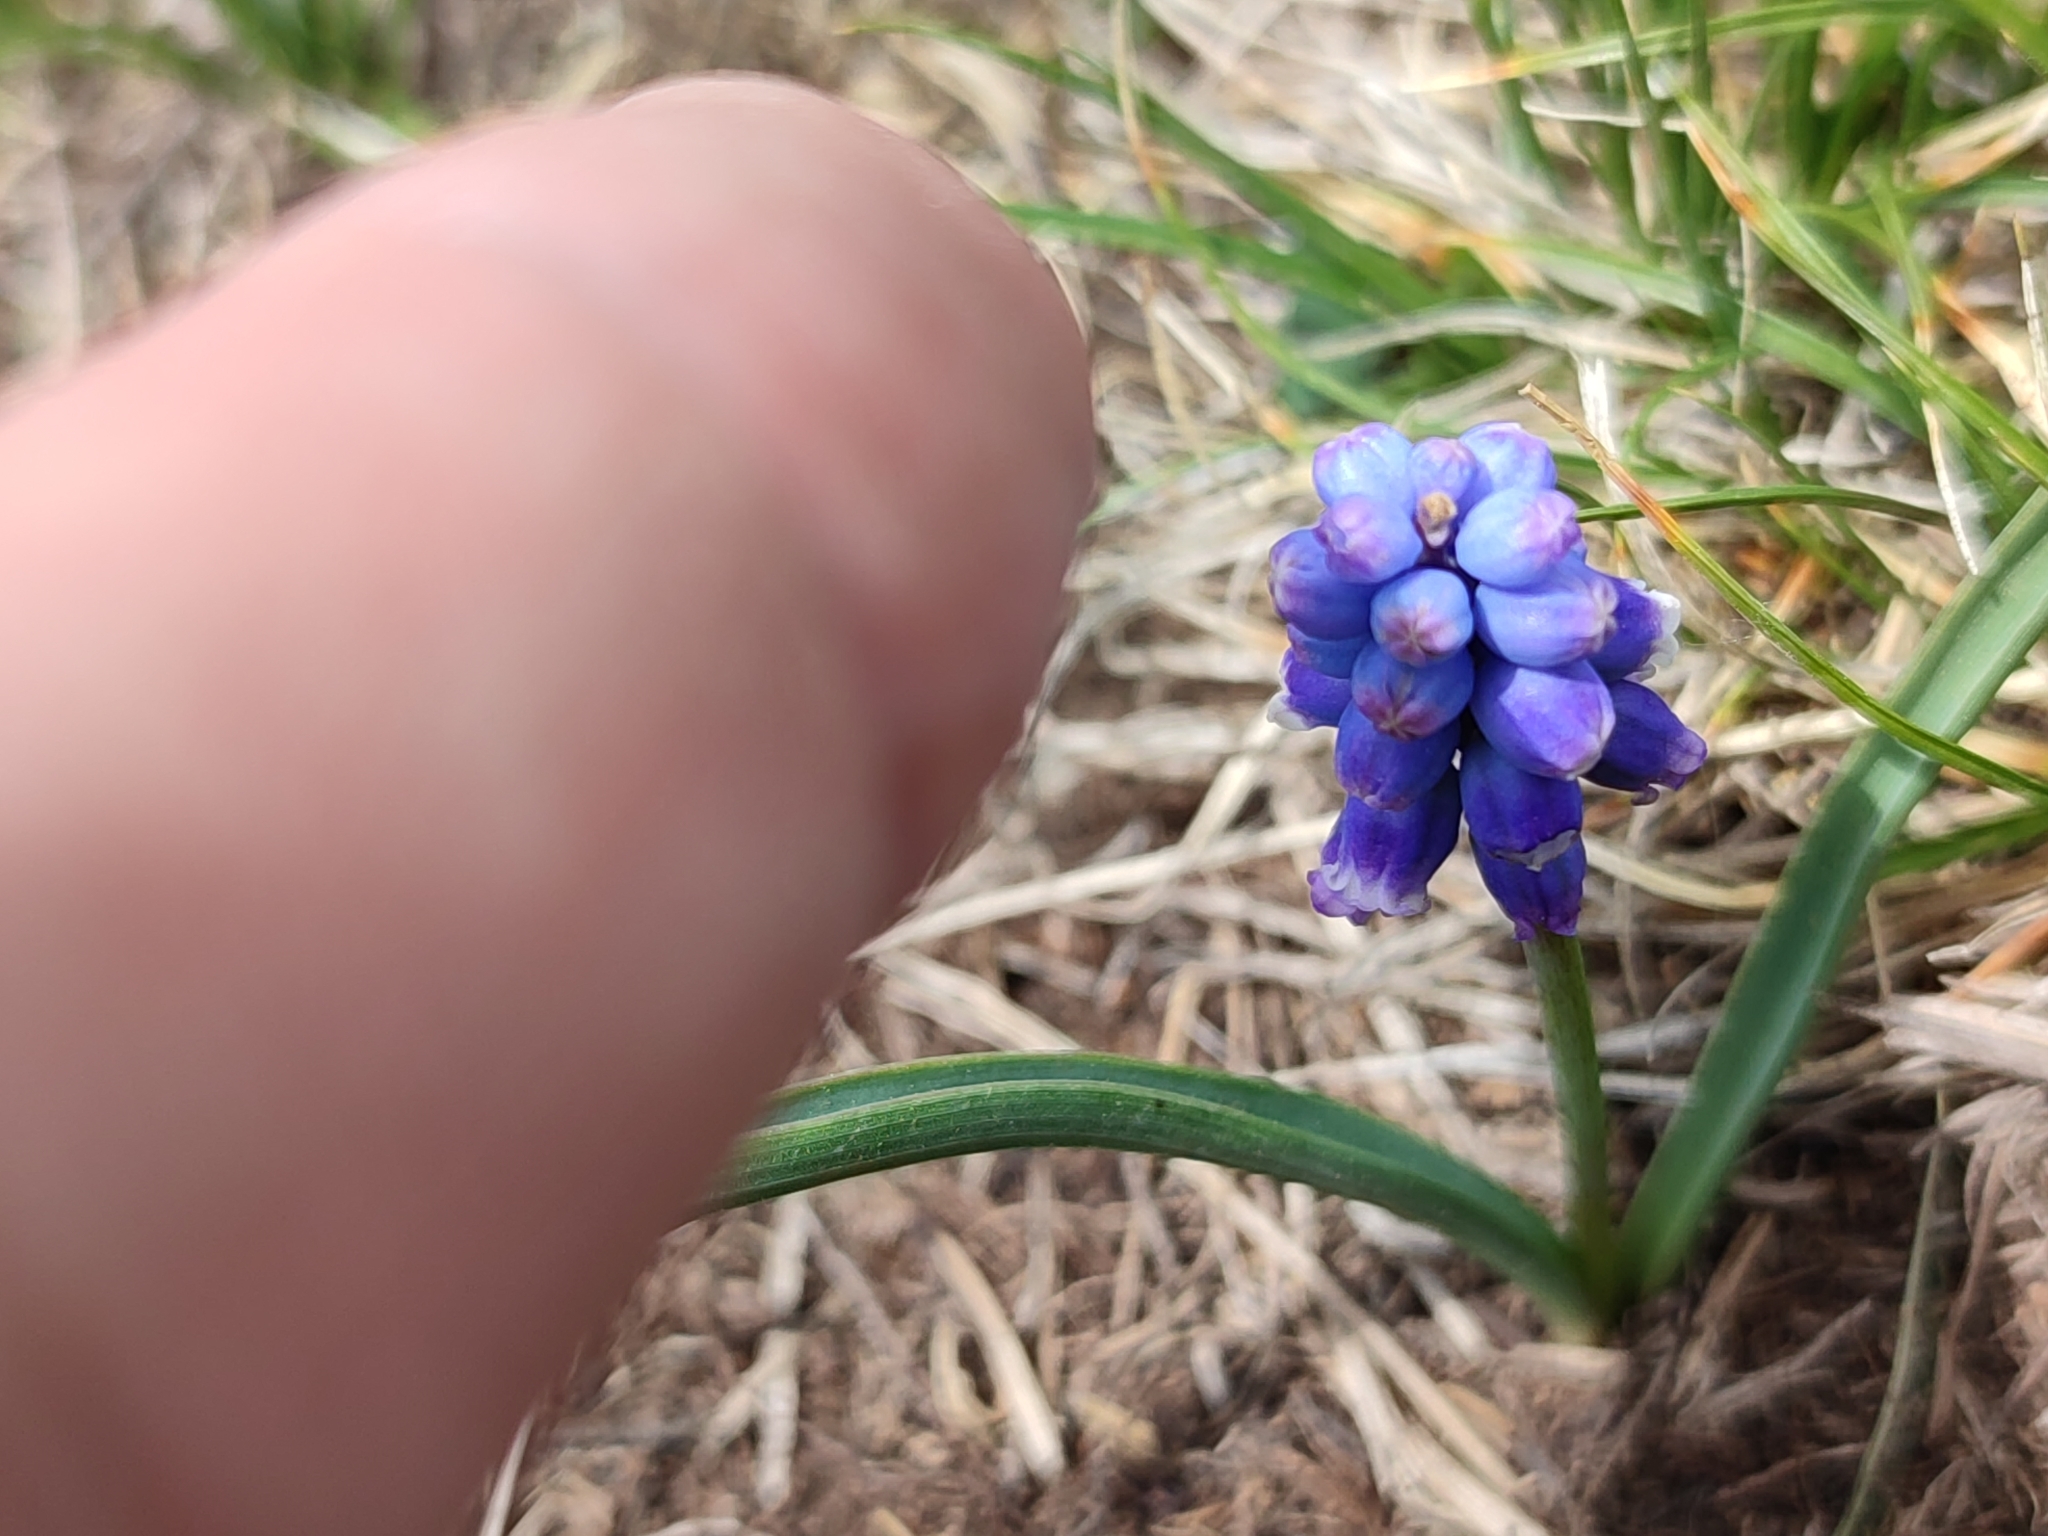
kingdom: Plantae
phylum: Tracheophyta
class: Liliopsida
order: Asparagales
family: Asparagaceae
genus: Muscari
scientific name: Muscari coeruleum
